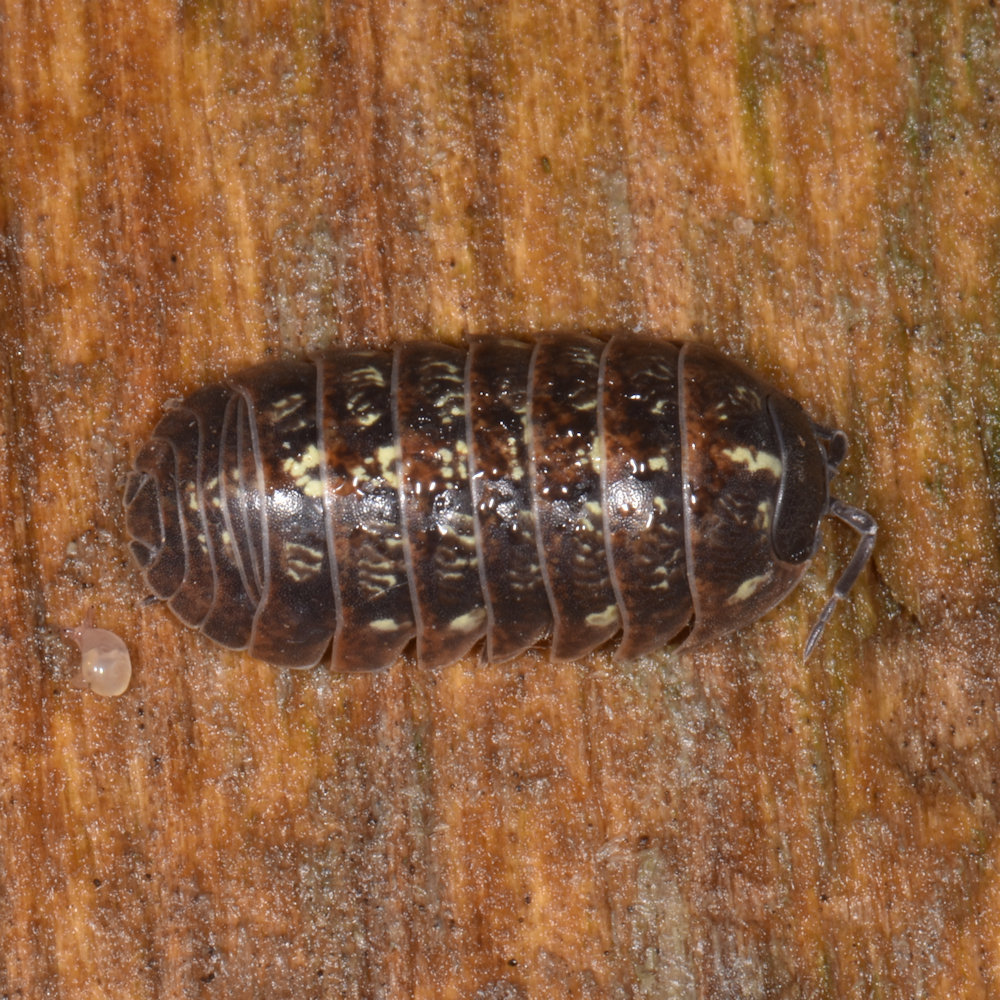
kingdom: Animalia
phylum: Arthropoda
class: Malacostraca
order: Isopoda
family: Armadillidiidae
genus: Armadillidium
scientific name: Armadillidium vulgare
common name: Common pill woodlouse
